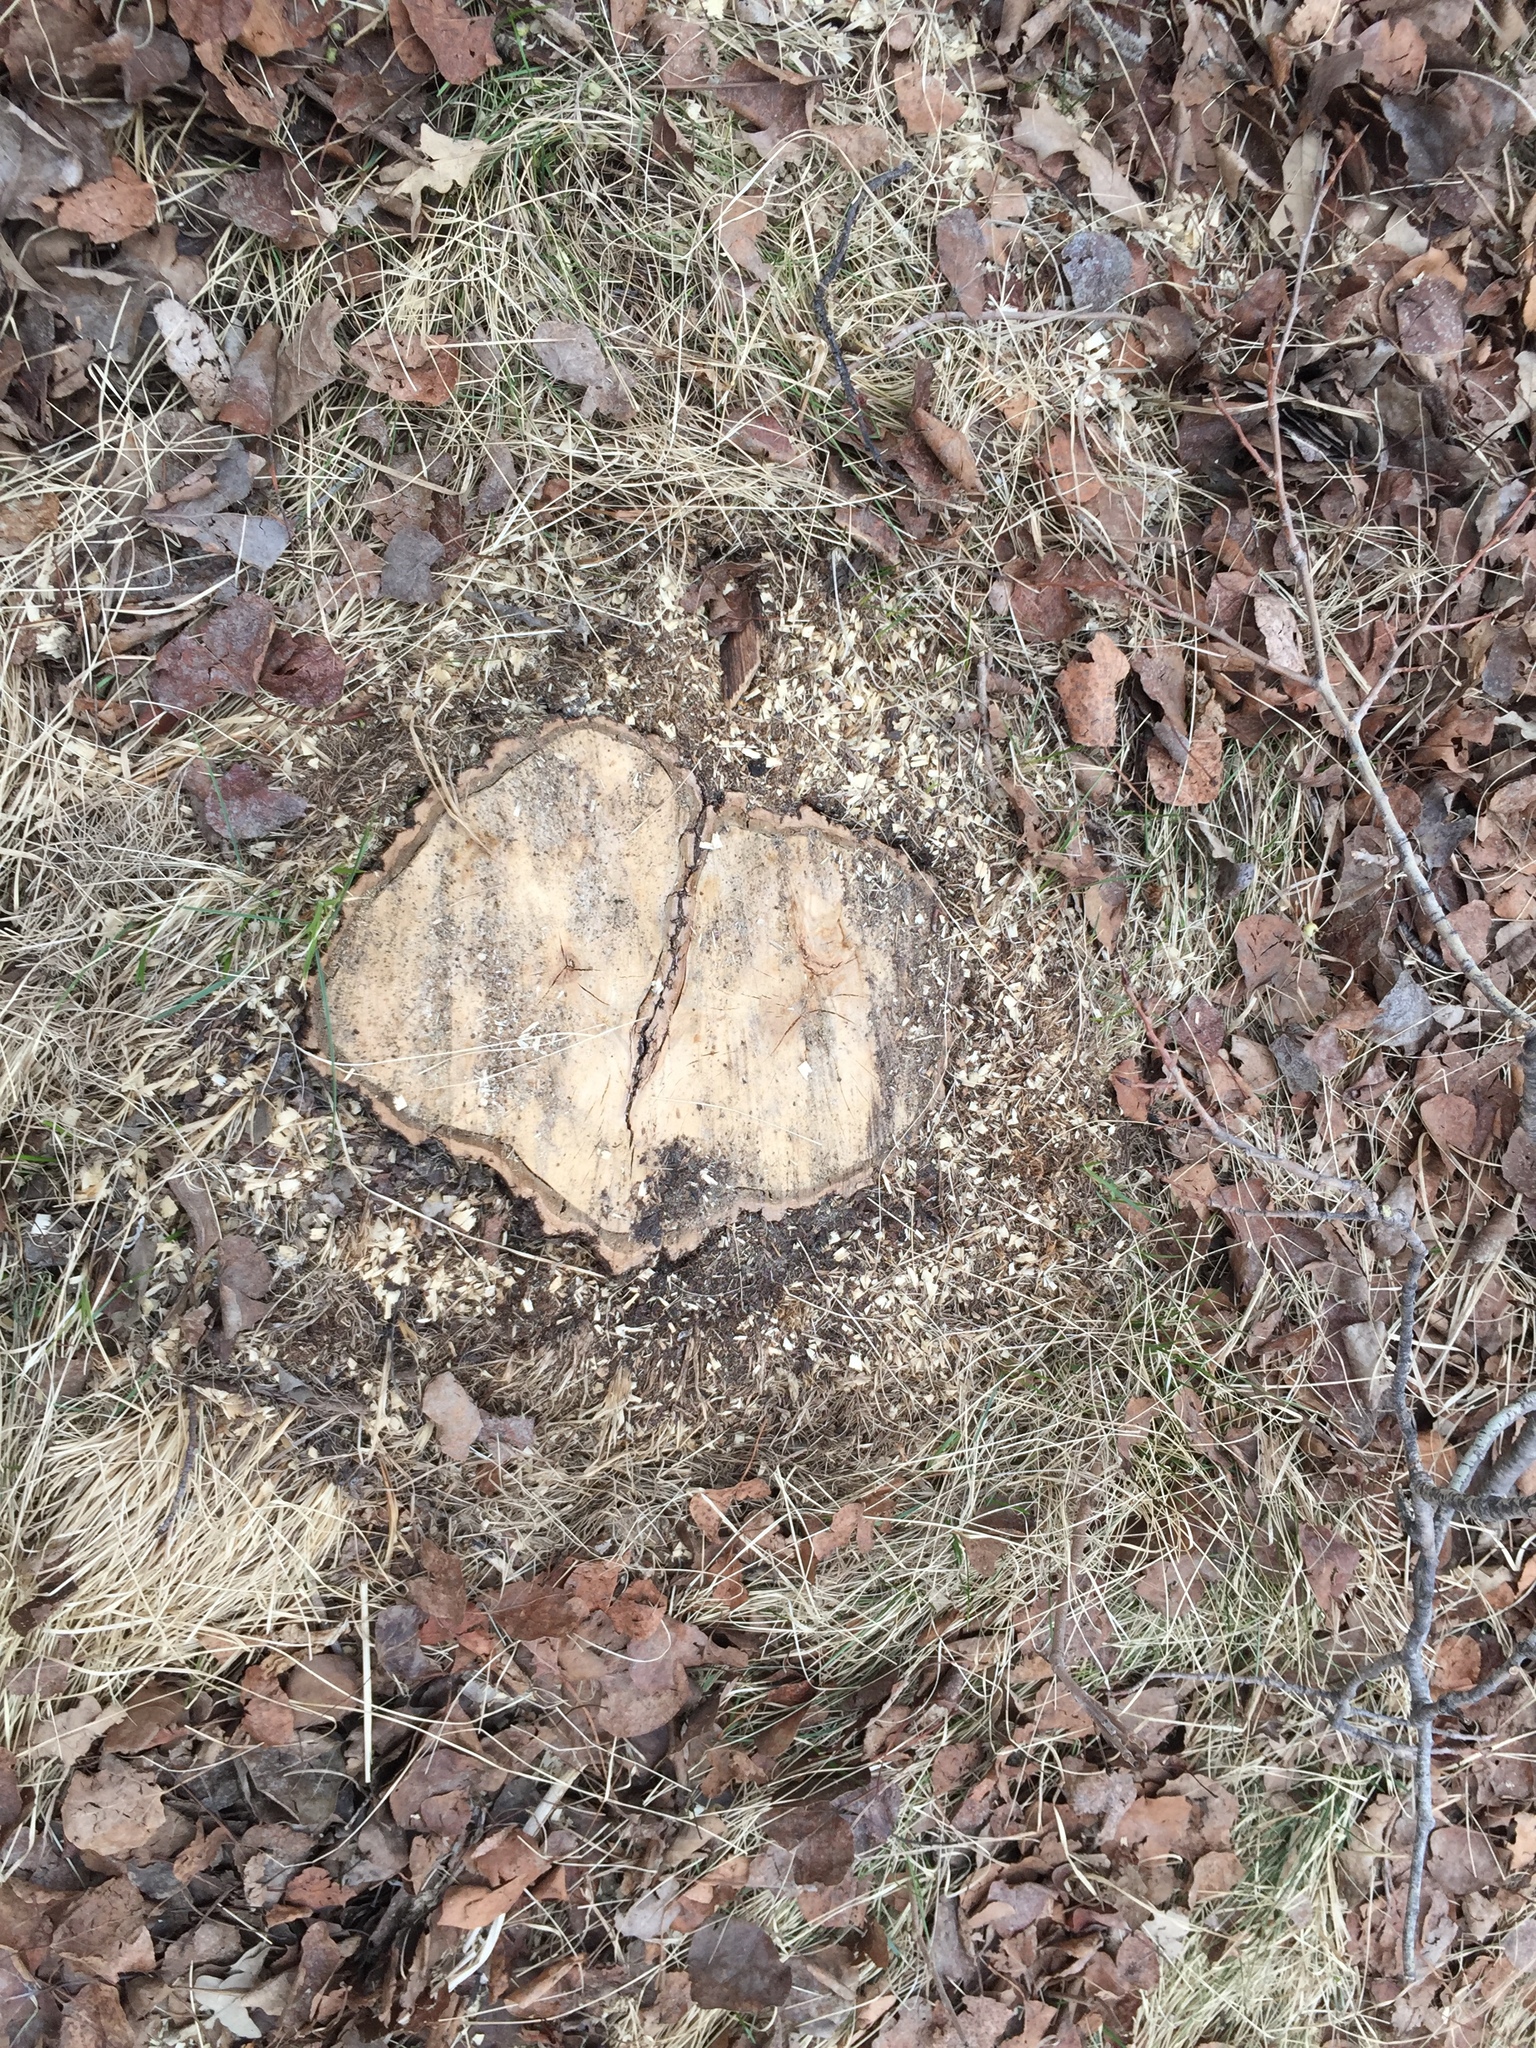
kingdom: Plantae
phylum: Tracheophyta
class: Magnoliopsida
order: Fagales
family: Fagaceae
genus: Quercus
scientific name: Quercus macrocarpa
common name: Bur oak
